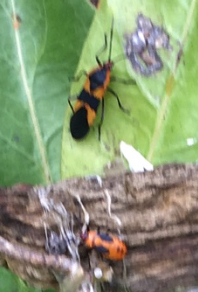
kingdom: Animalia
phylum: Arthropoda
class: Insecta
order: Hemiptera
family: Lygaeidae
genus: Oncopeltus
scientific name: Oncopeltus fasciatus
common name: Large milkweed bug
